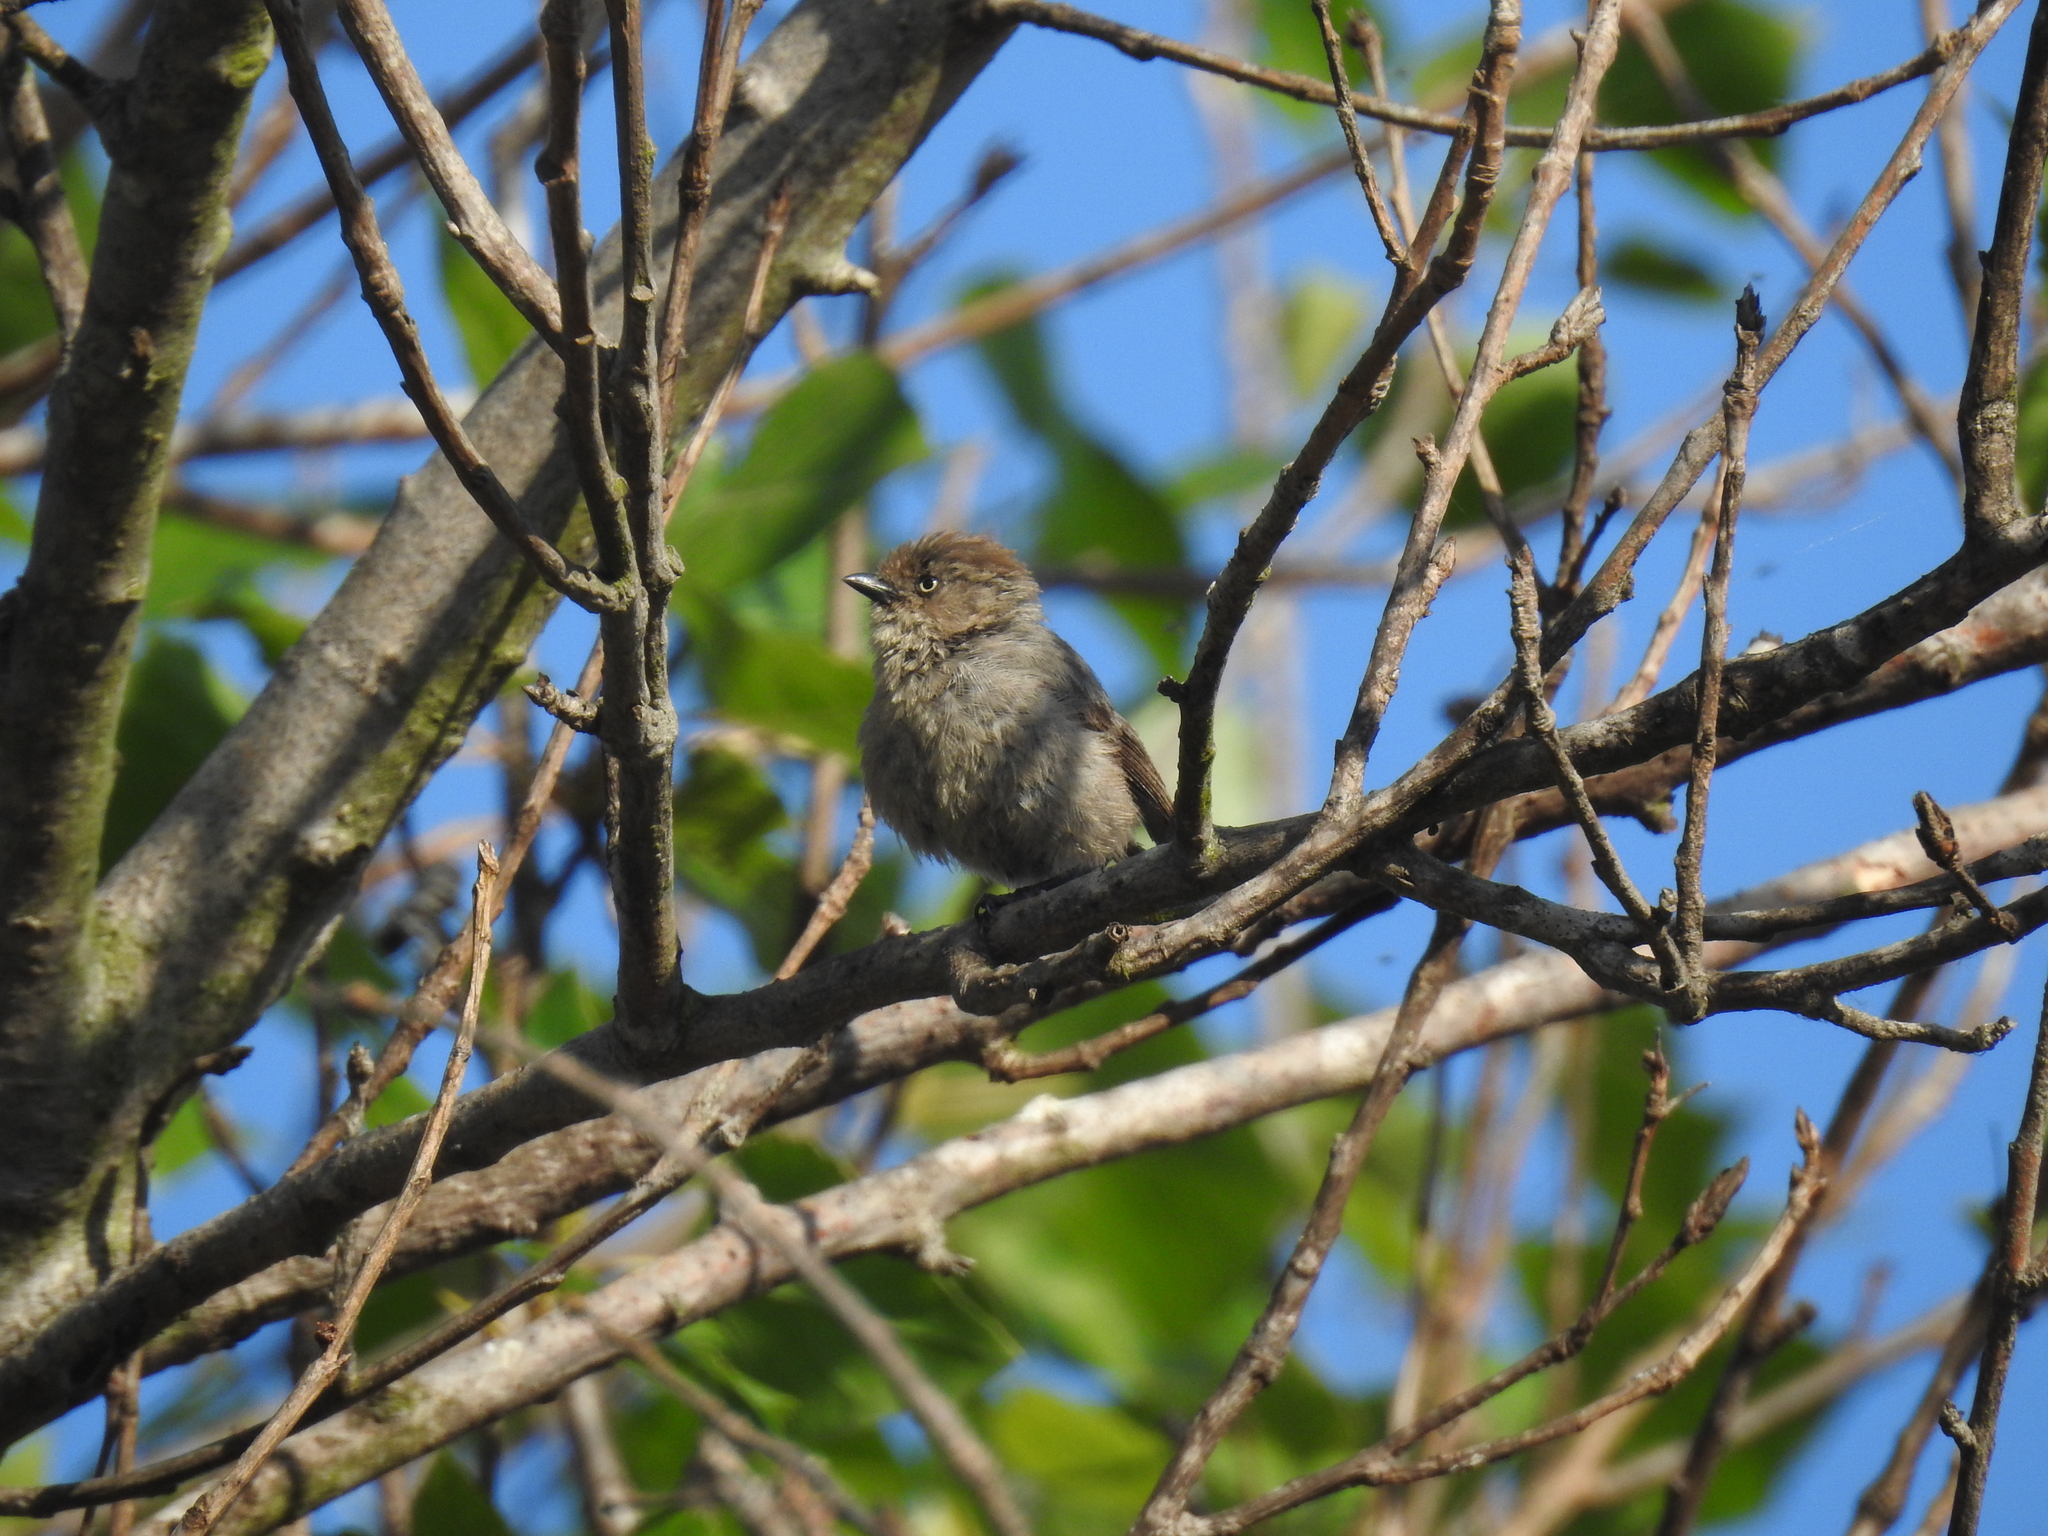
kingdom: Animalia
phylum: Chordata
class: Aves
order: Passeriformes
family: Aegithalidae
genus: Psaltriparus
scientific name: Psaltriparus minimus
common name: American bushtit
